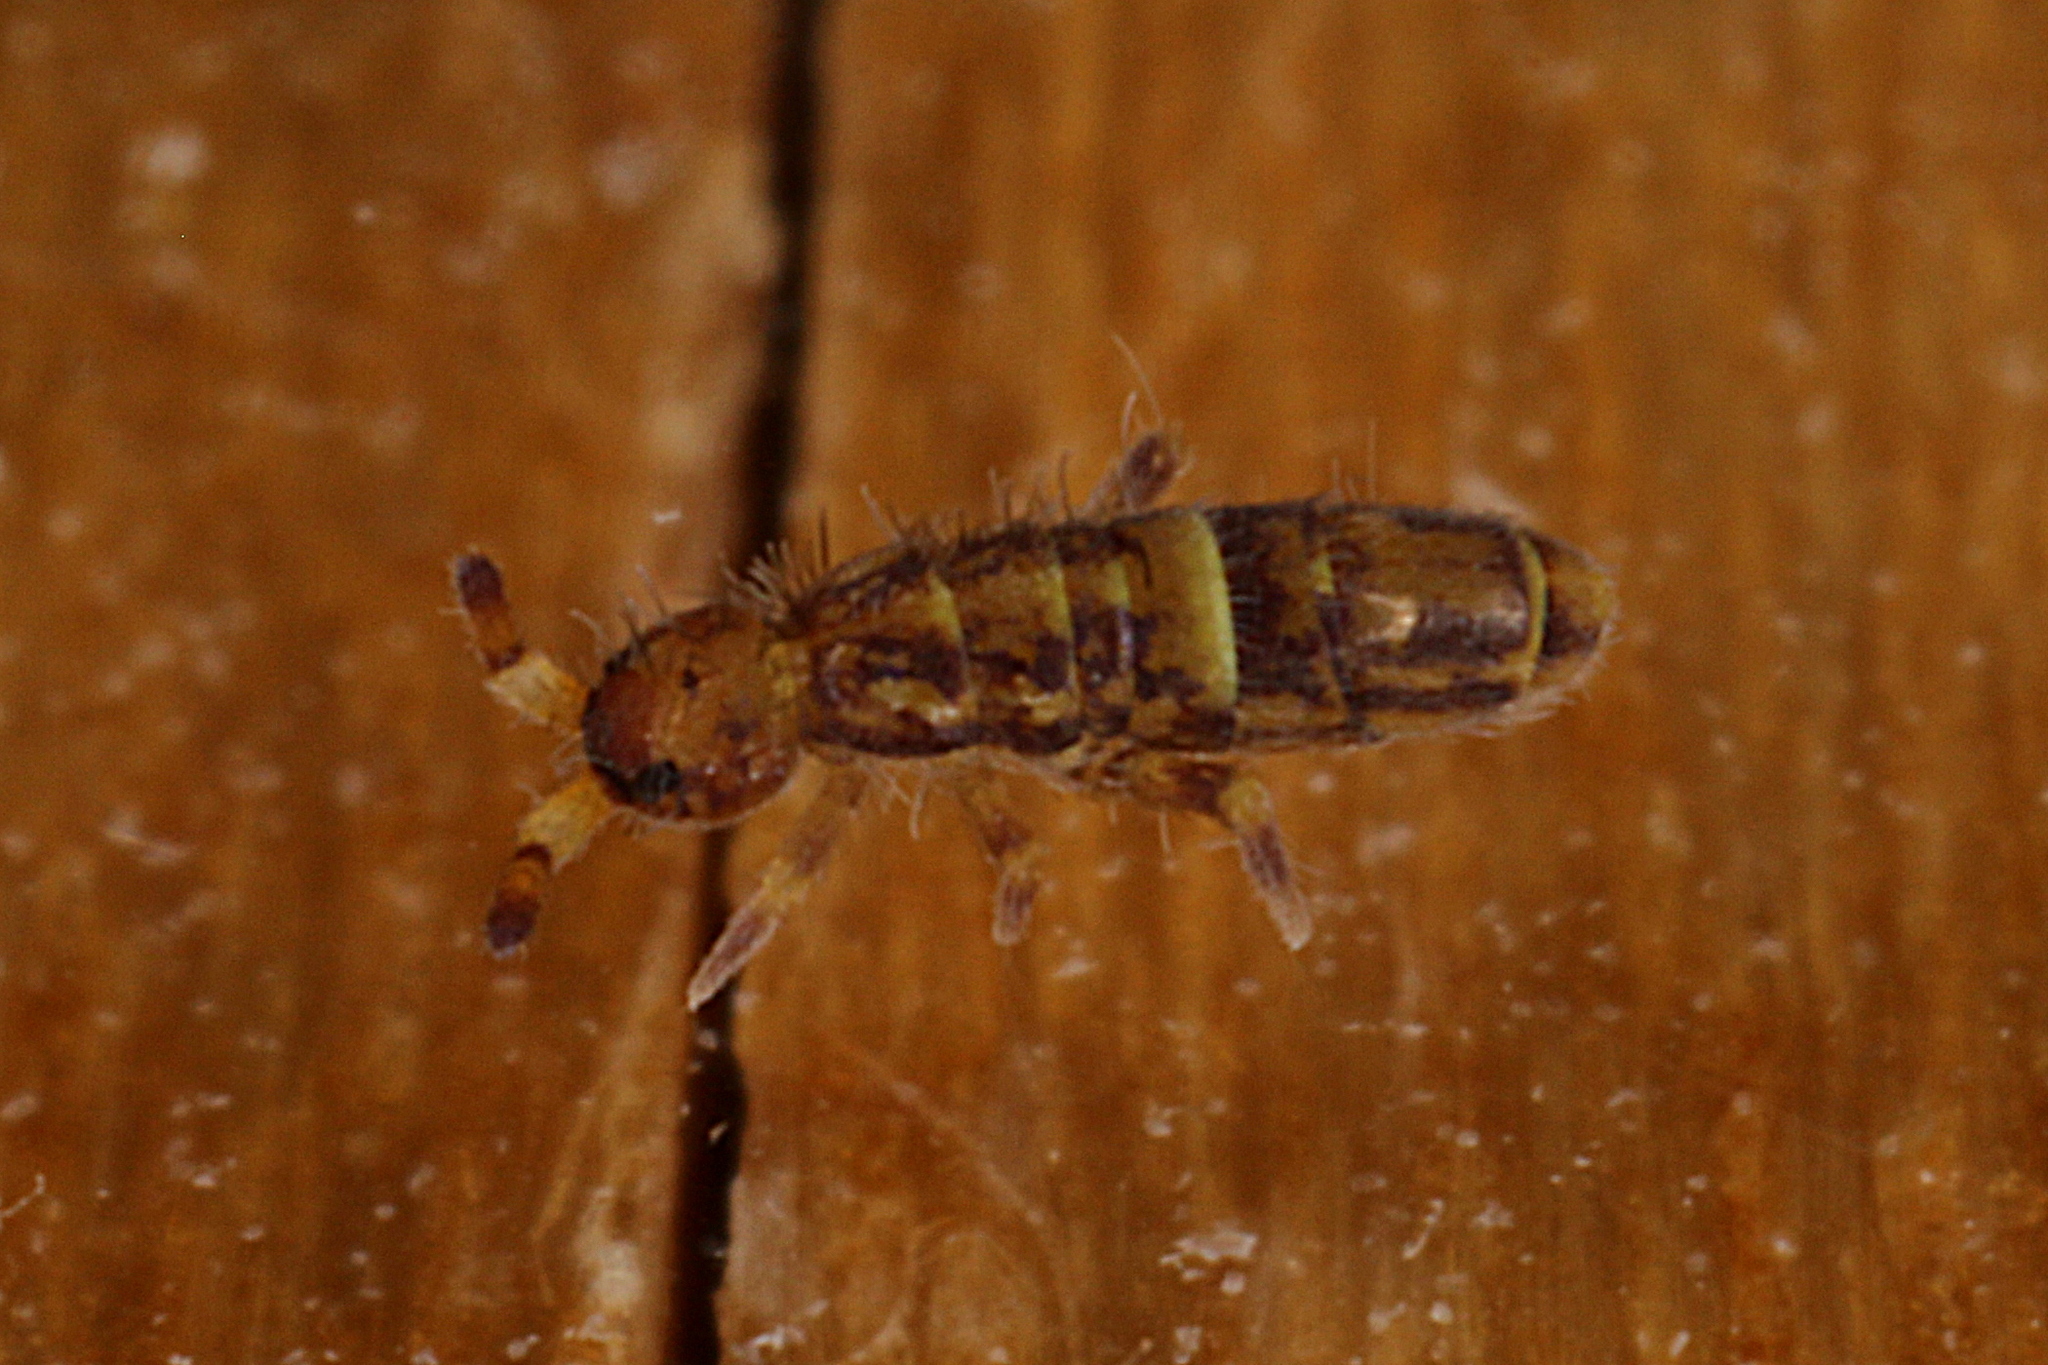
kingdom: Animalia
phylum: Arthropoda
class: Collembola
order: Entomobryomorpha
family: Orchesellidae
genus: Orchesella
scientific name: Orchesella cincta
